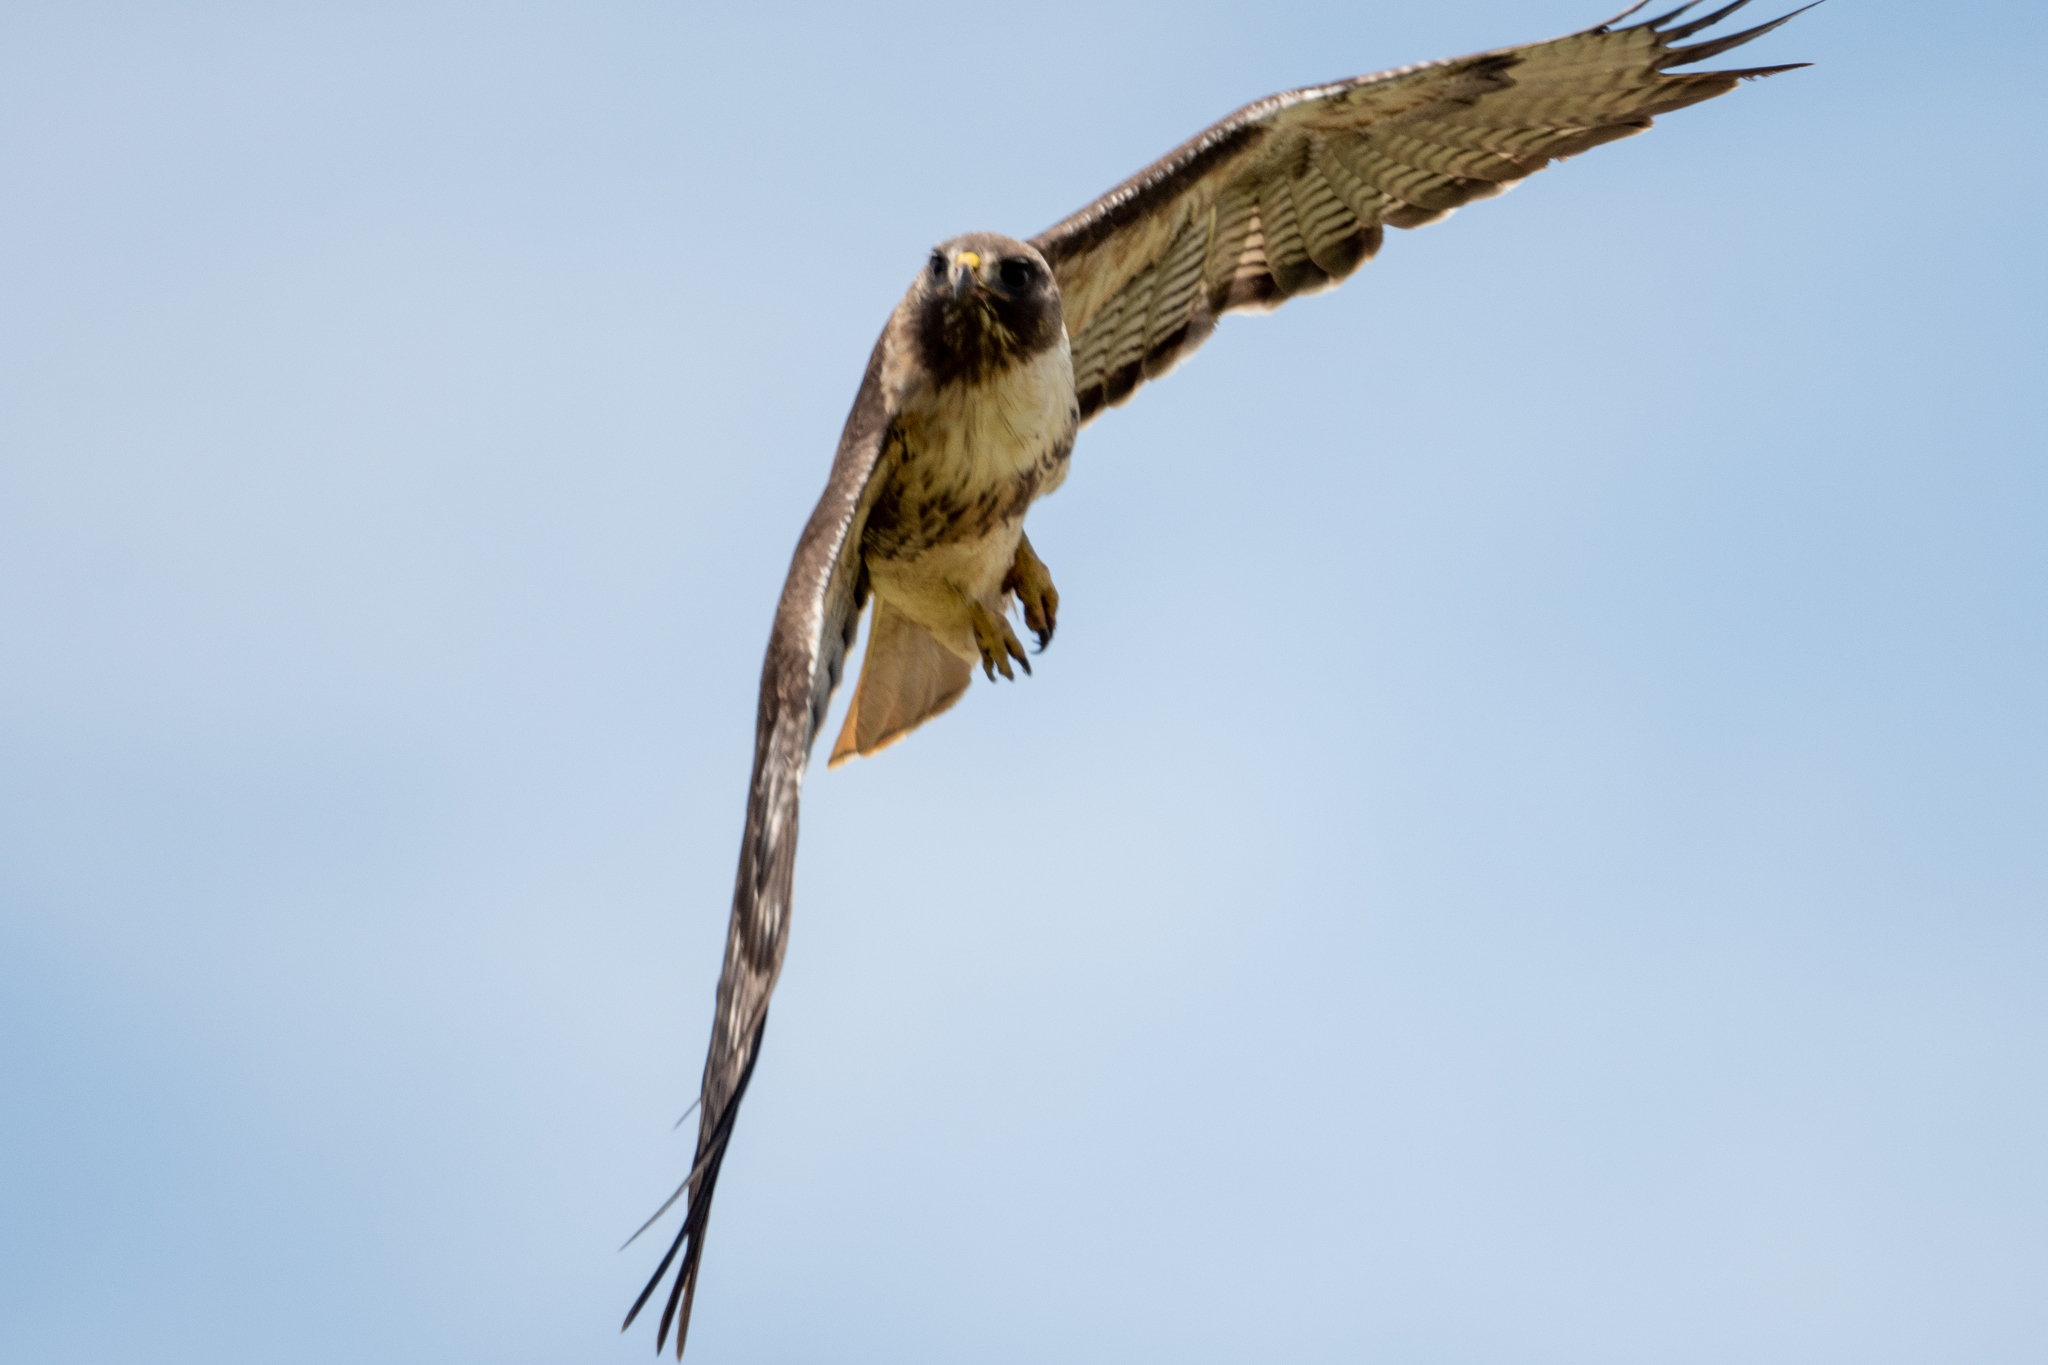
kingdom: Animalia
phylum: Chordata
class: Aves
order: Accipitriformes
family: Accipitridae
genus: Buteo
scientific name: Buteo jamaicensis
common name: Red-tailed hawk
